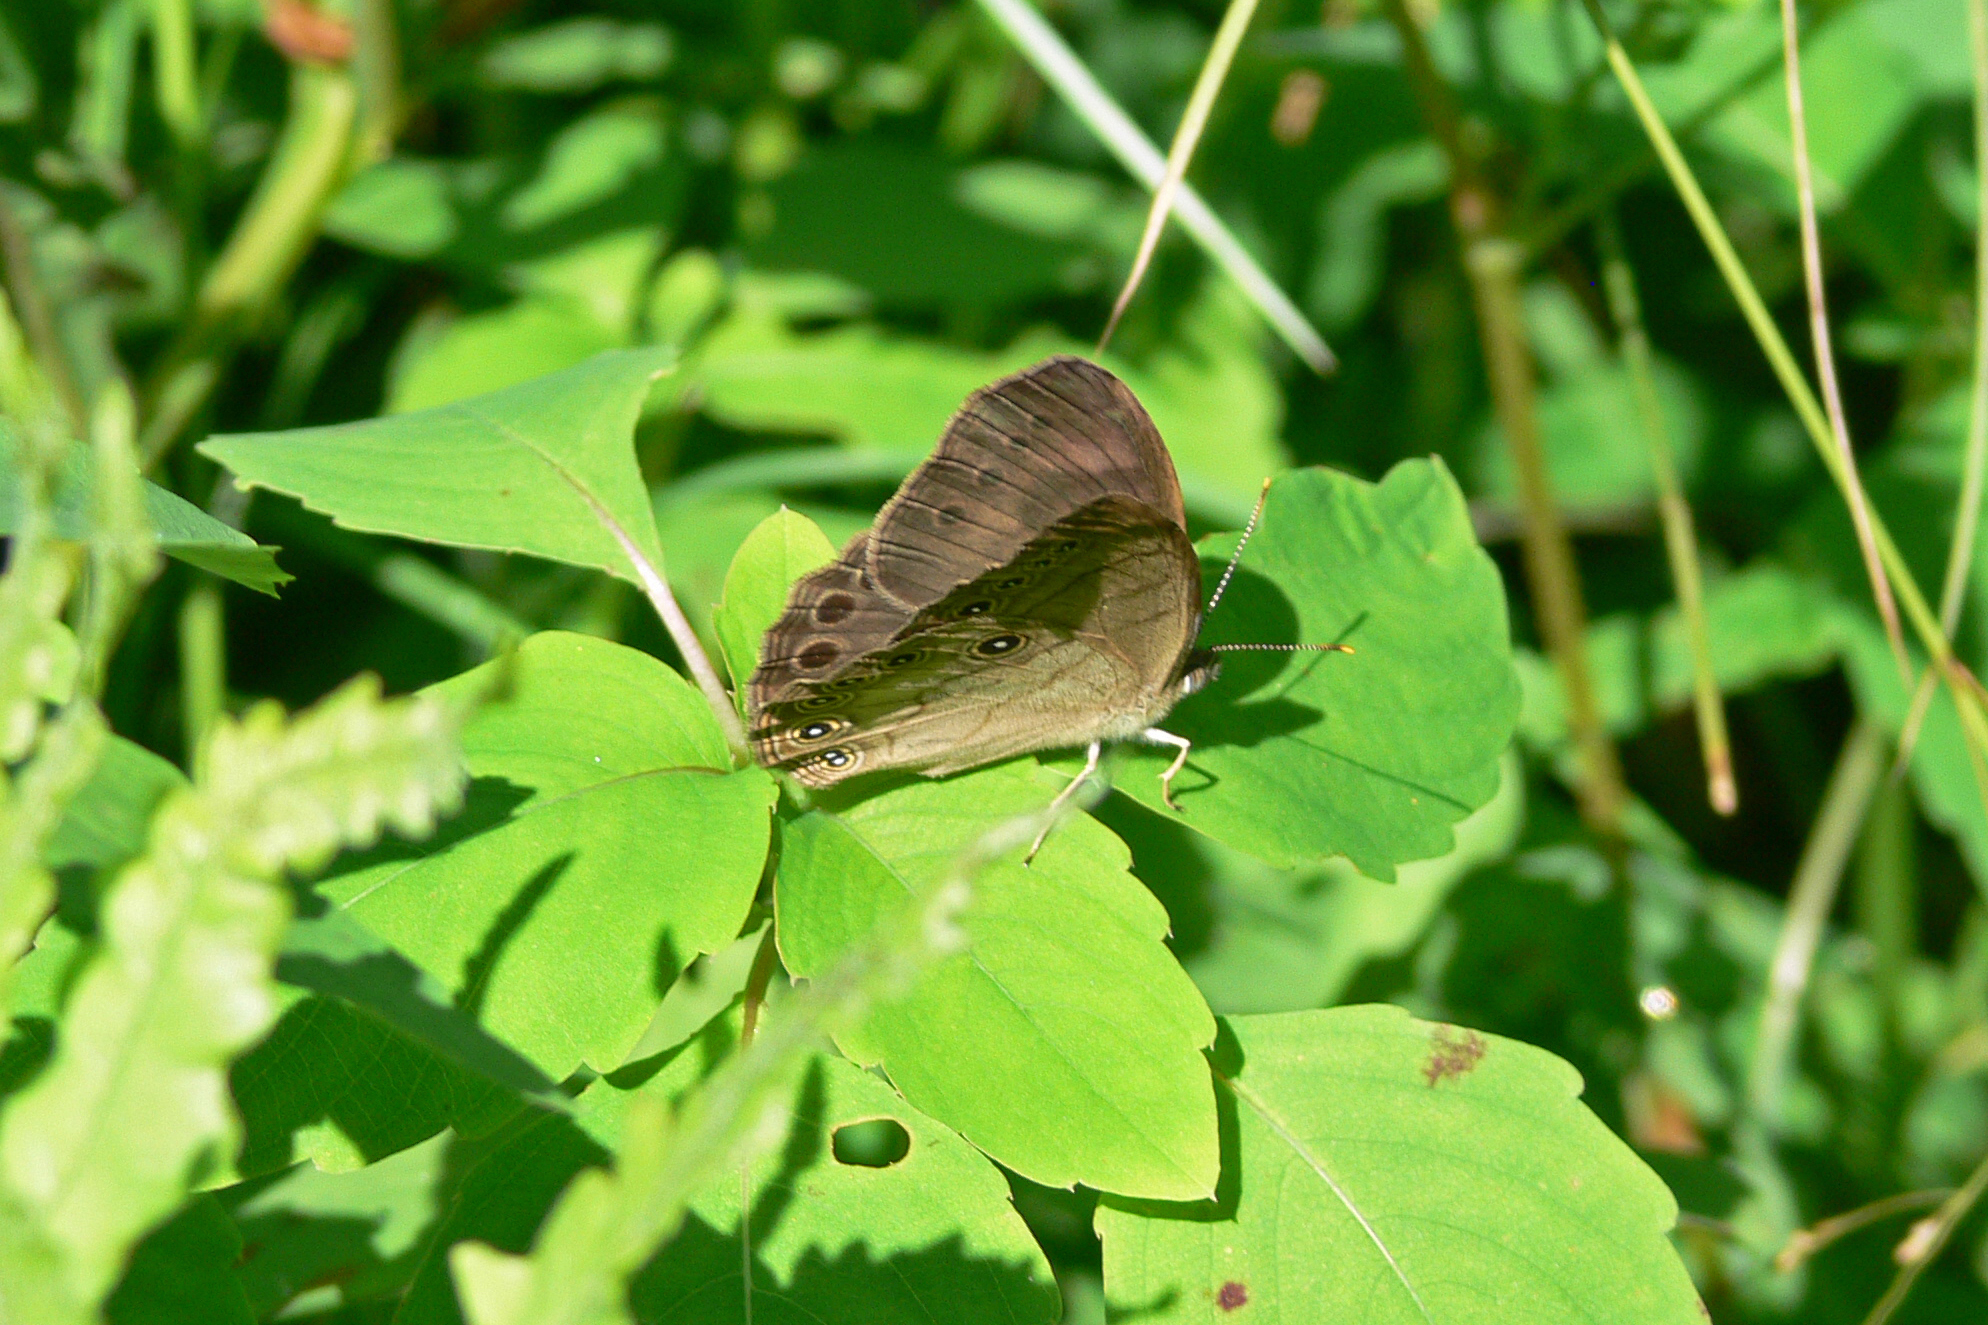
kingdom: Animalia
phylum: Arthropoda
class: Insecta
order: Lepidoptera
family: Nymphalidae
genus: Lethe
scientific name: Lethe eurydice
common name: Eyed brown
